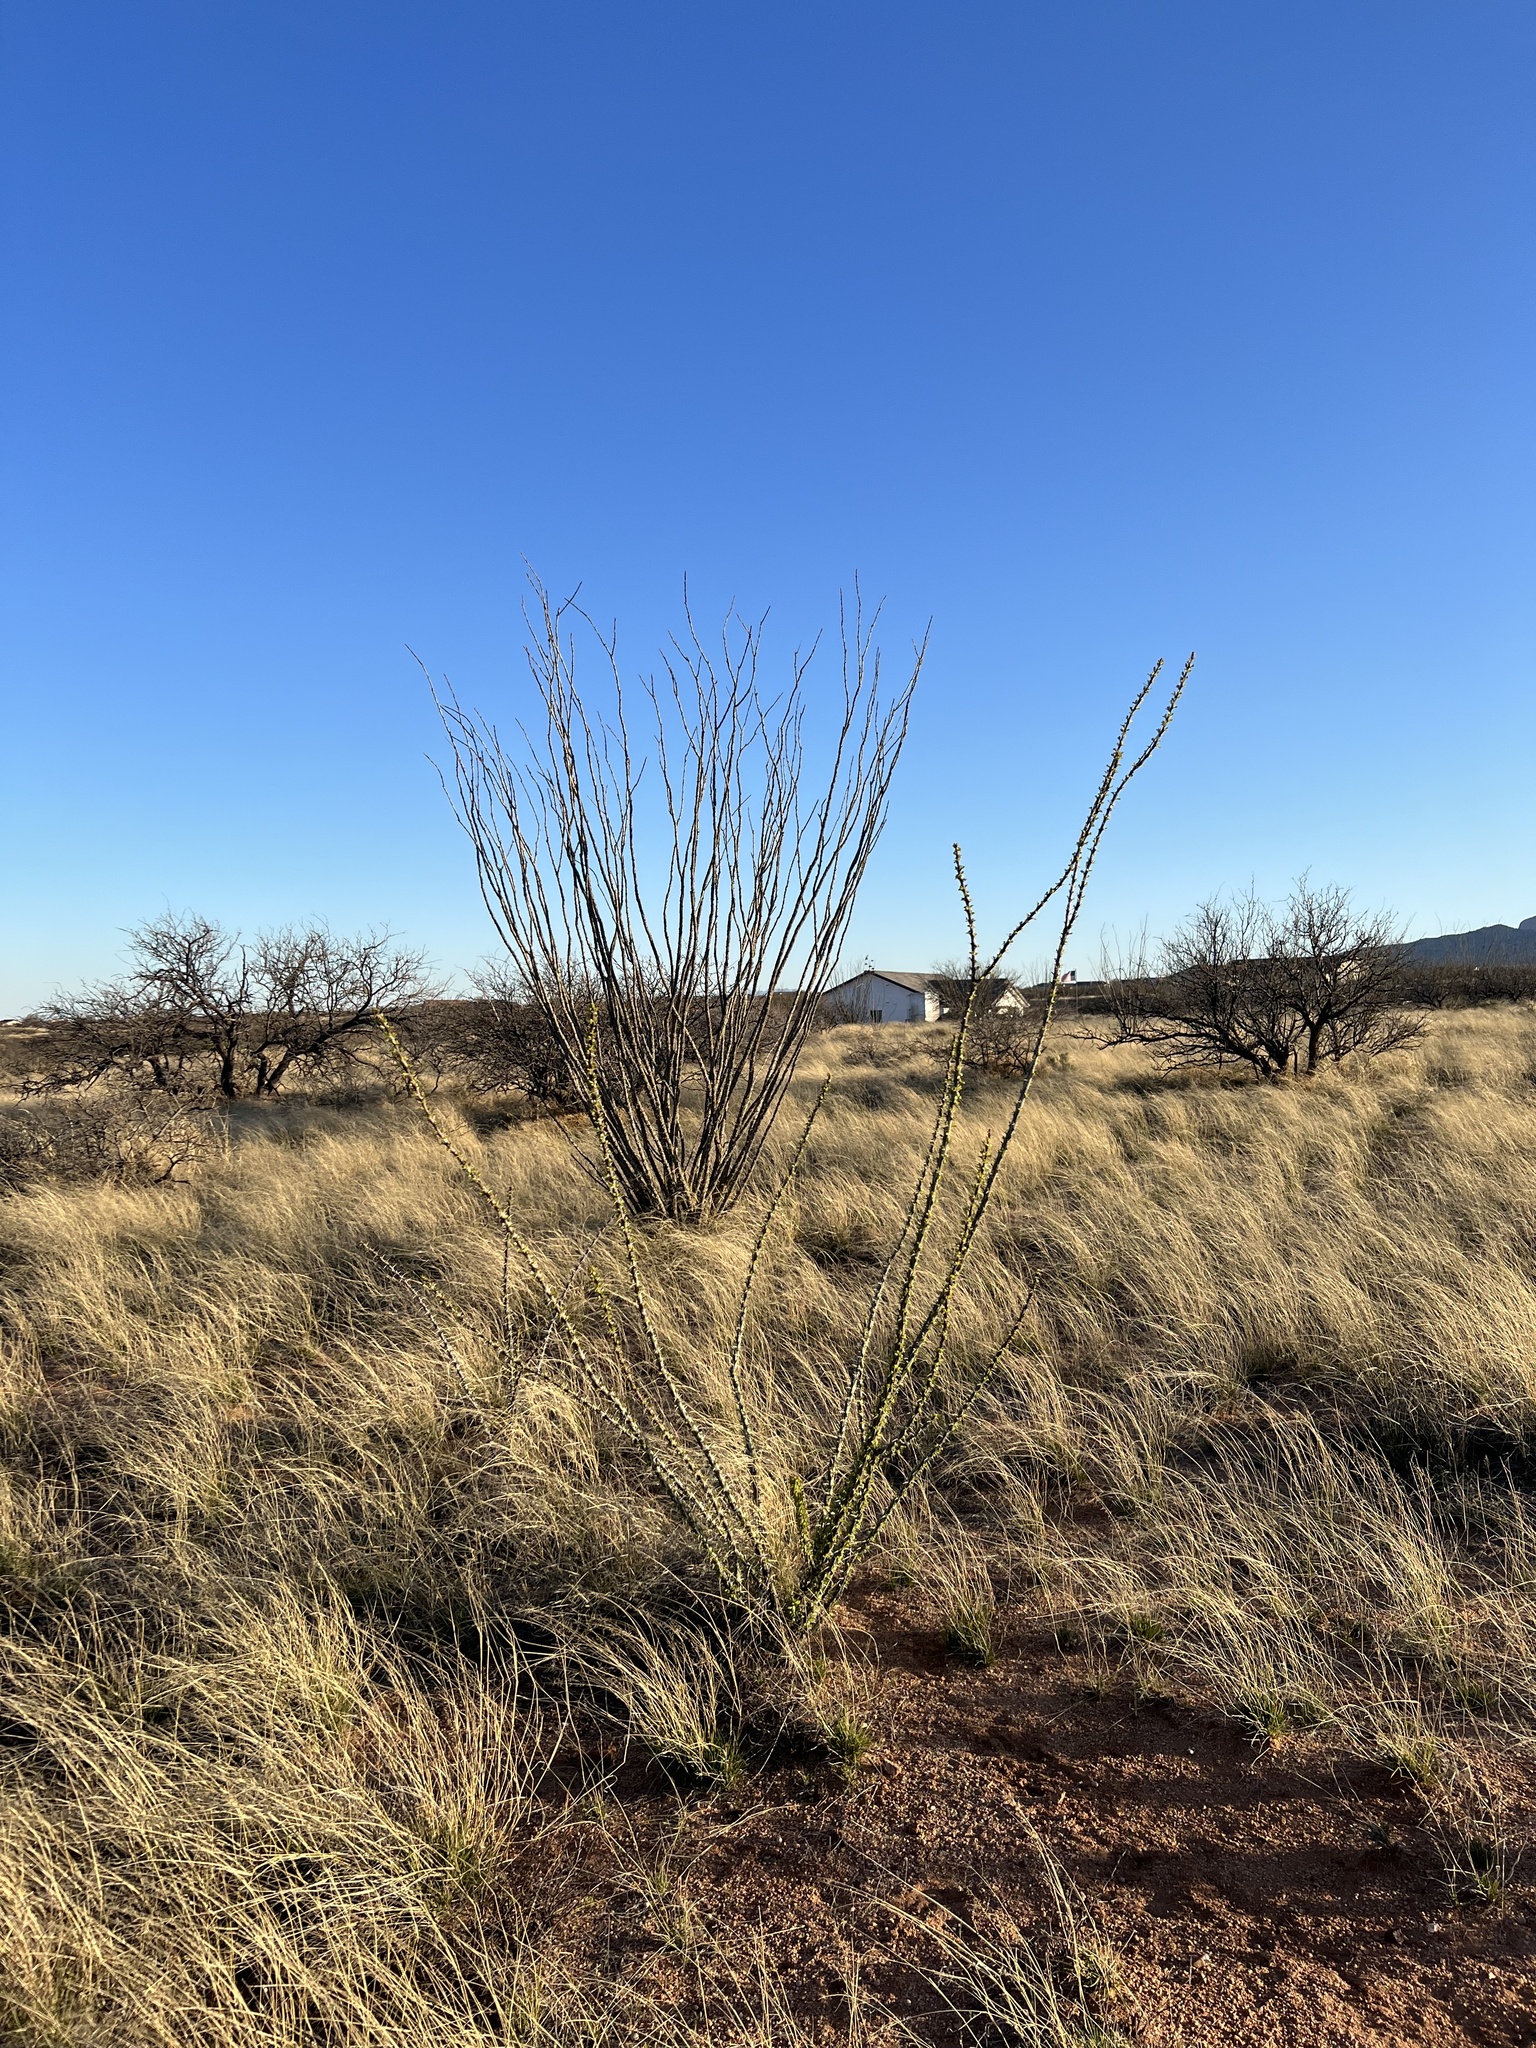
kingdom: Plantae
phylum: Tracheophyta
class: Magnoliopsida
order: Ericales
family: Fouquieriaceae
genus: Fouquieria
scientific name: Fouquieria splendens
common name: Vine-cactus
